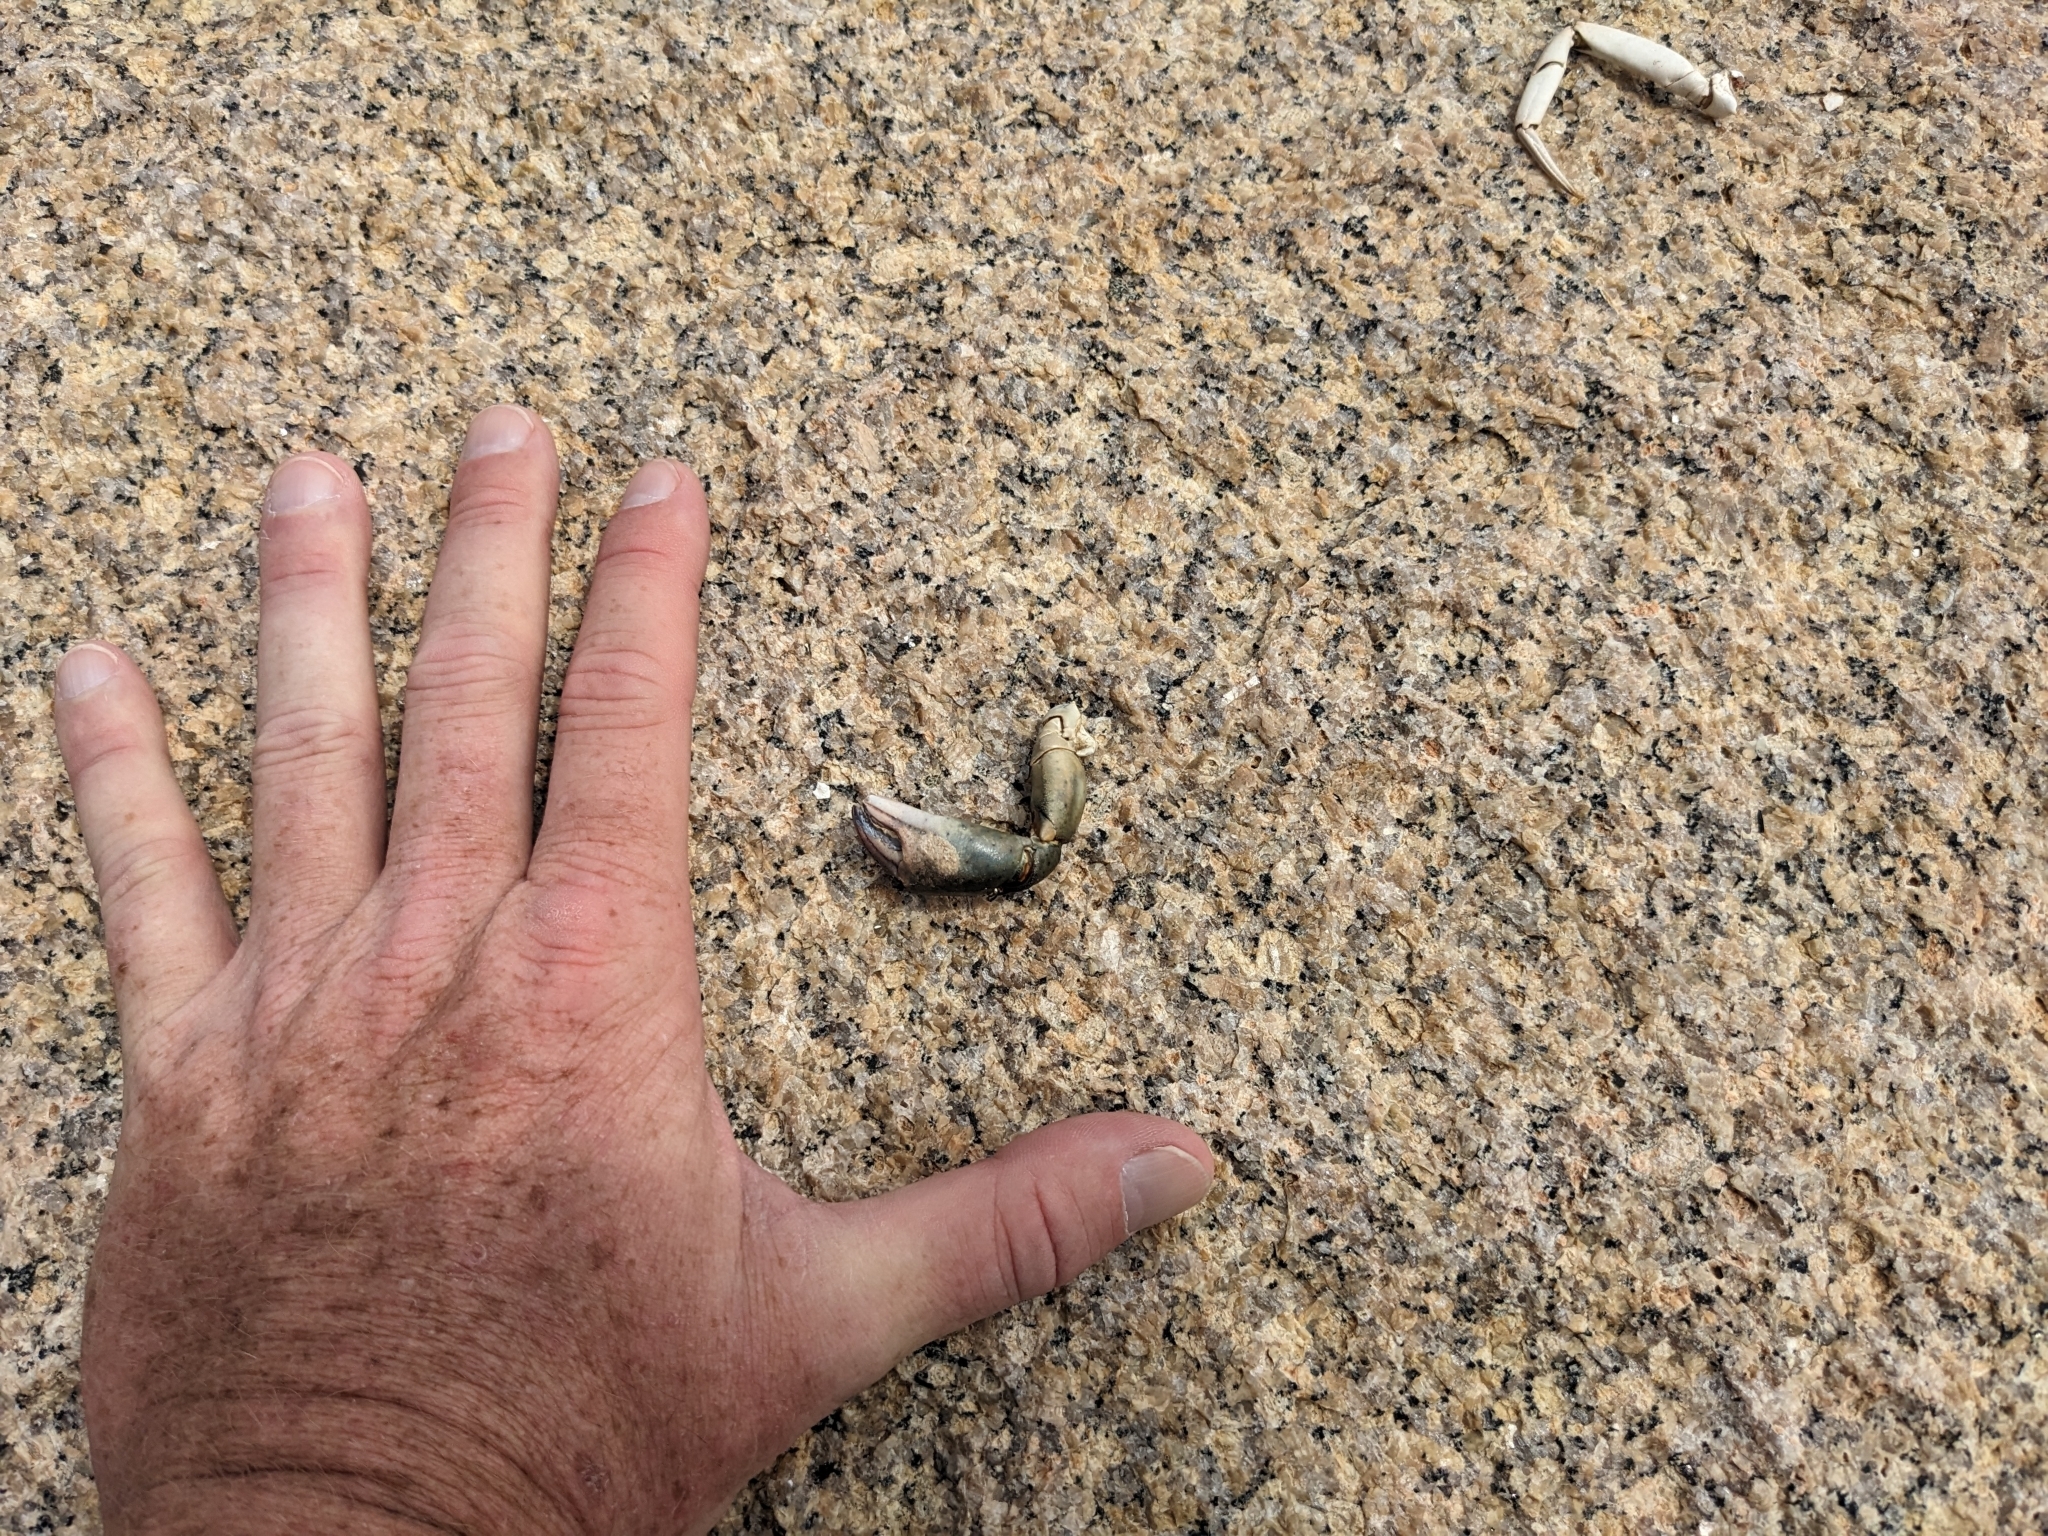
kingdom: Animalia
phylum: Arthropoda
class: Malacostraca
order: Decapoda
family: Carcinidae
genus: Carcinus
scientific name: Carcinus maenas
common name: European green crab
